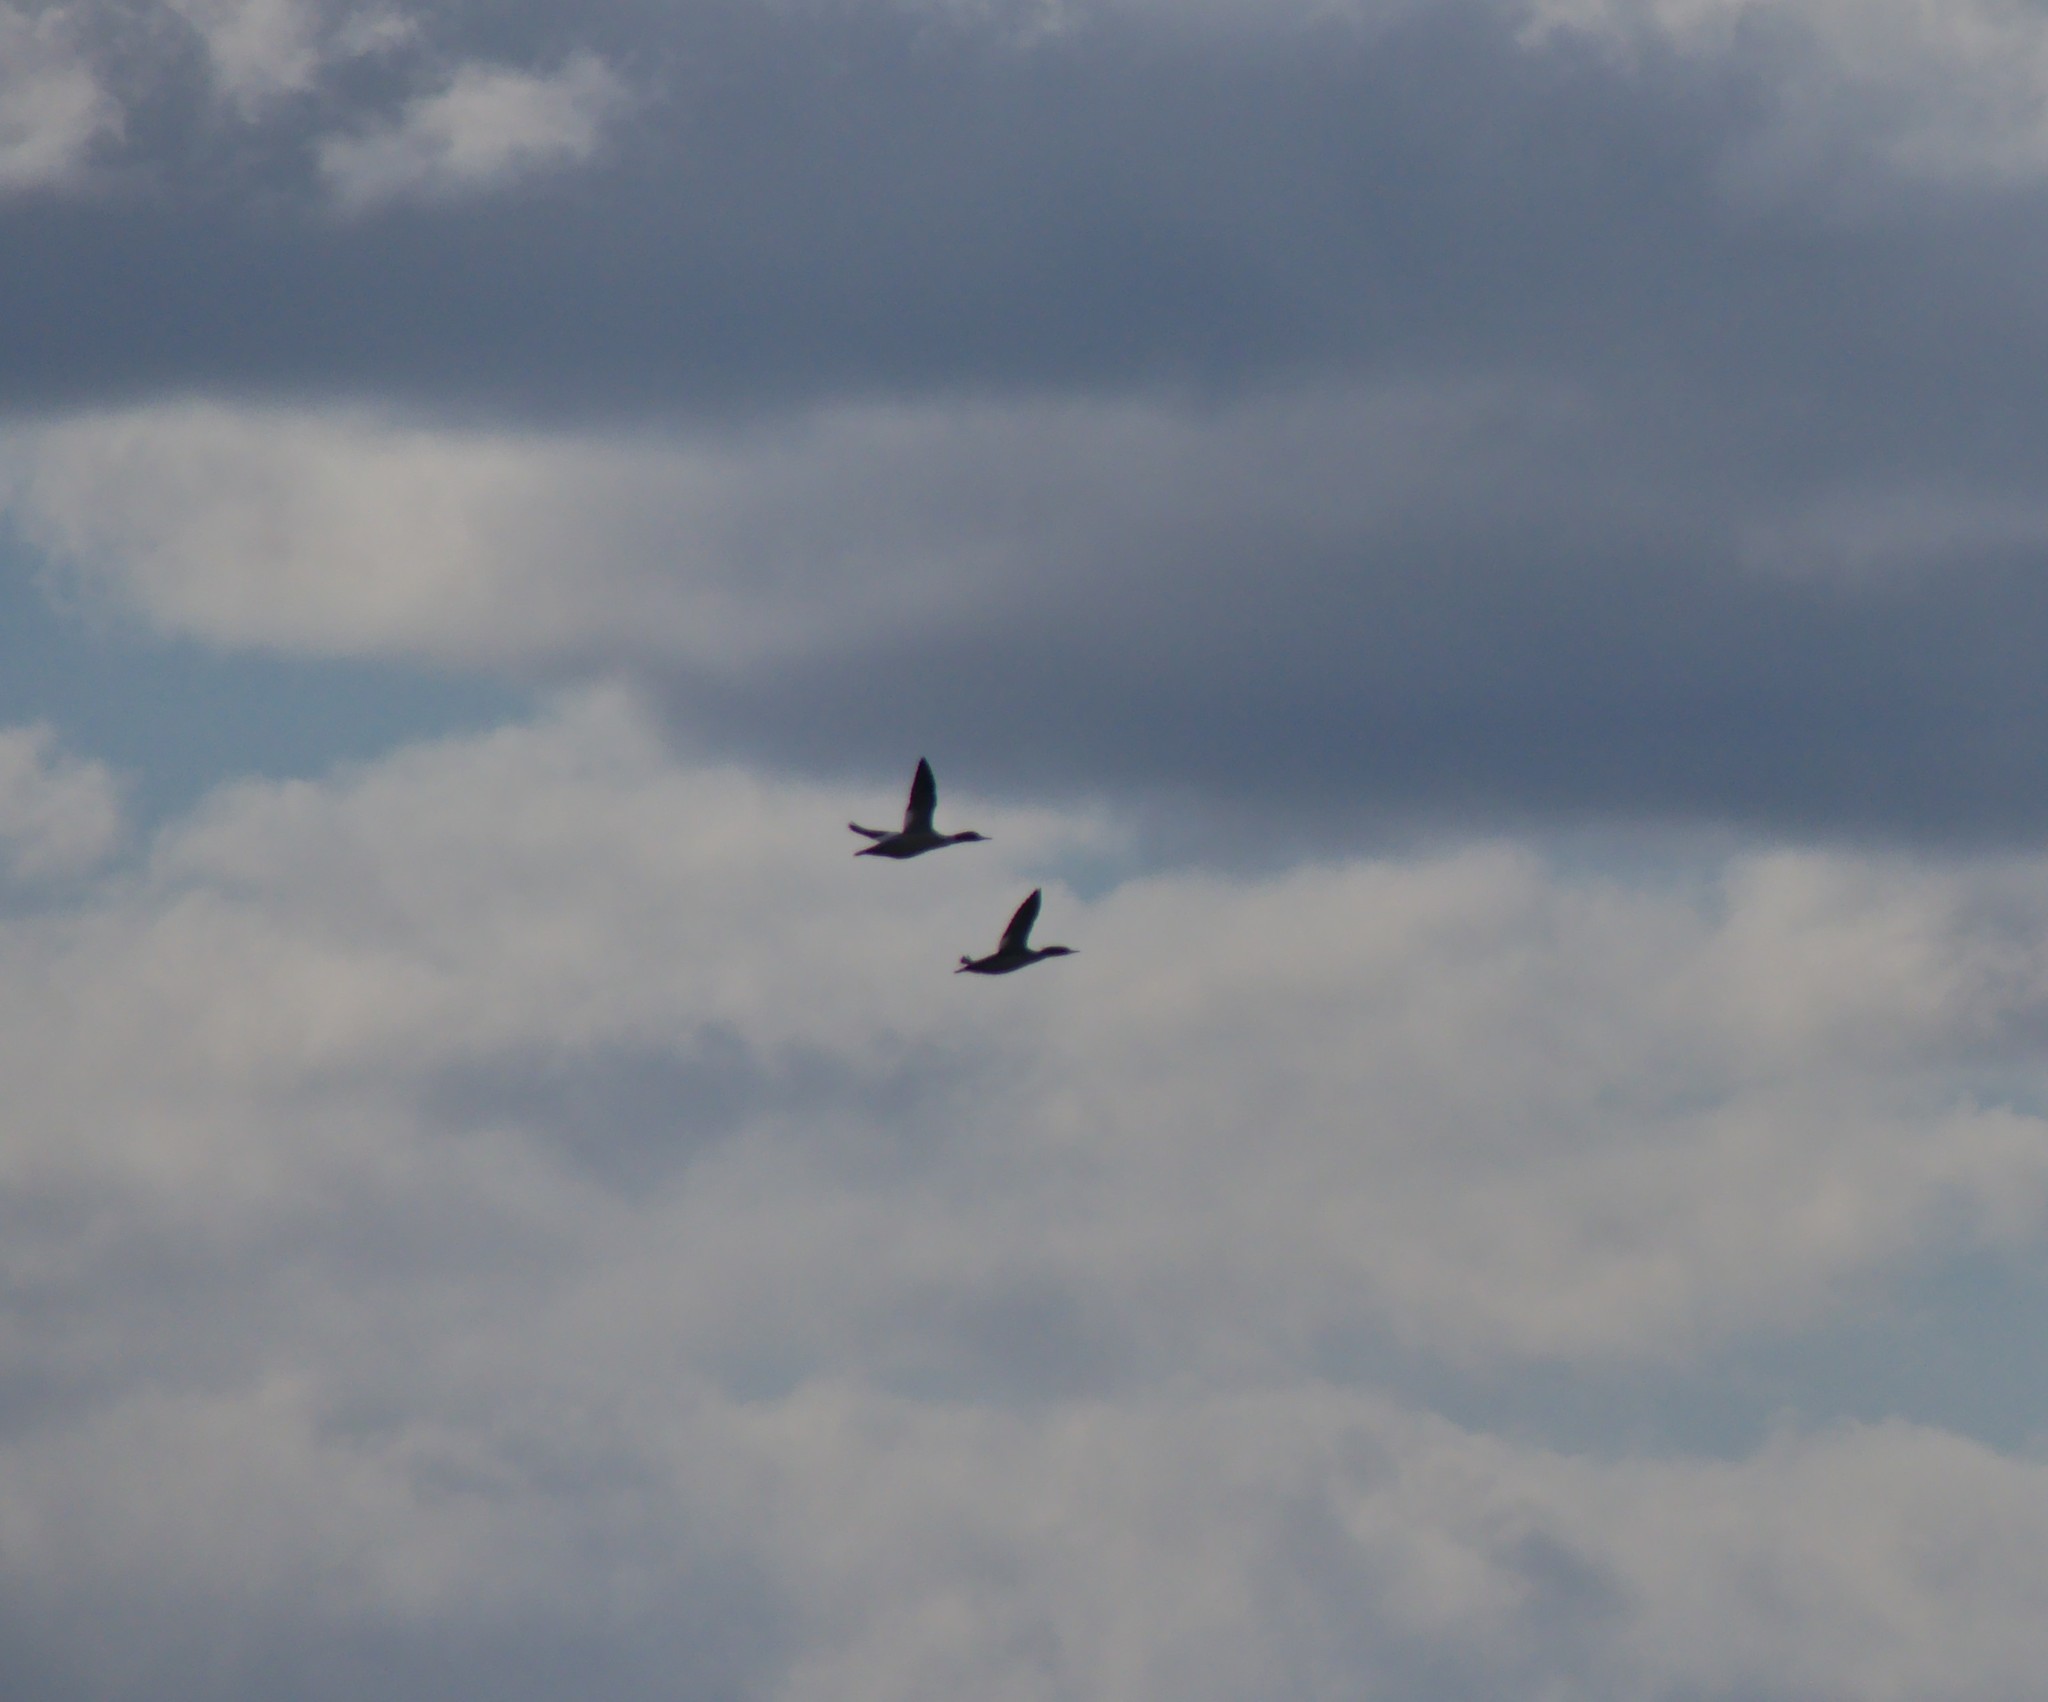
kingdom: Animalia
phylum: Chordata
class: Aves
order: Anseriformes
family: Anatidae
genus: Mergus
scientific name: Mergus merganser
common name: Common merganser
